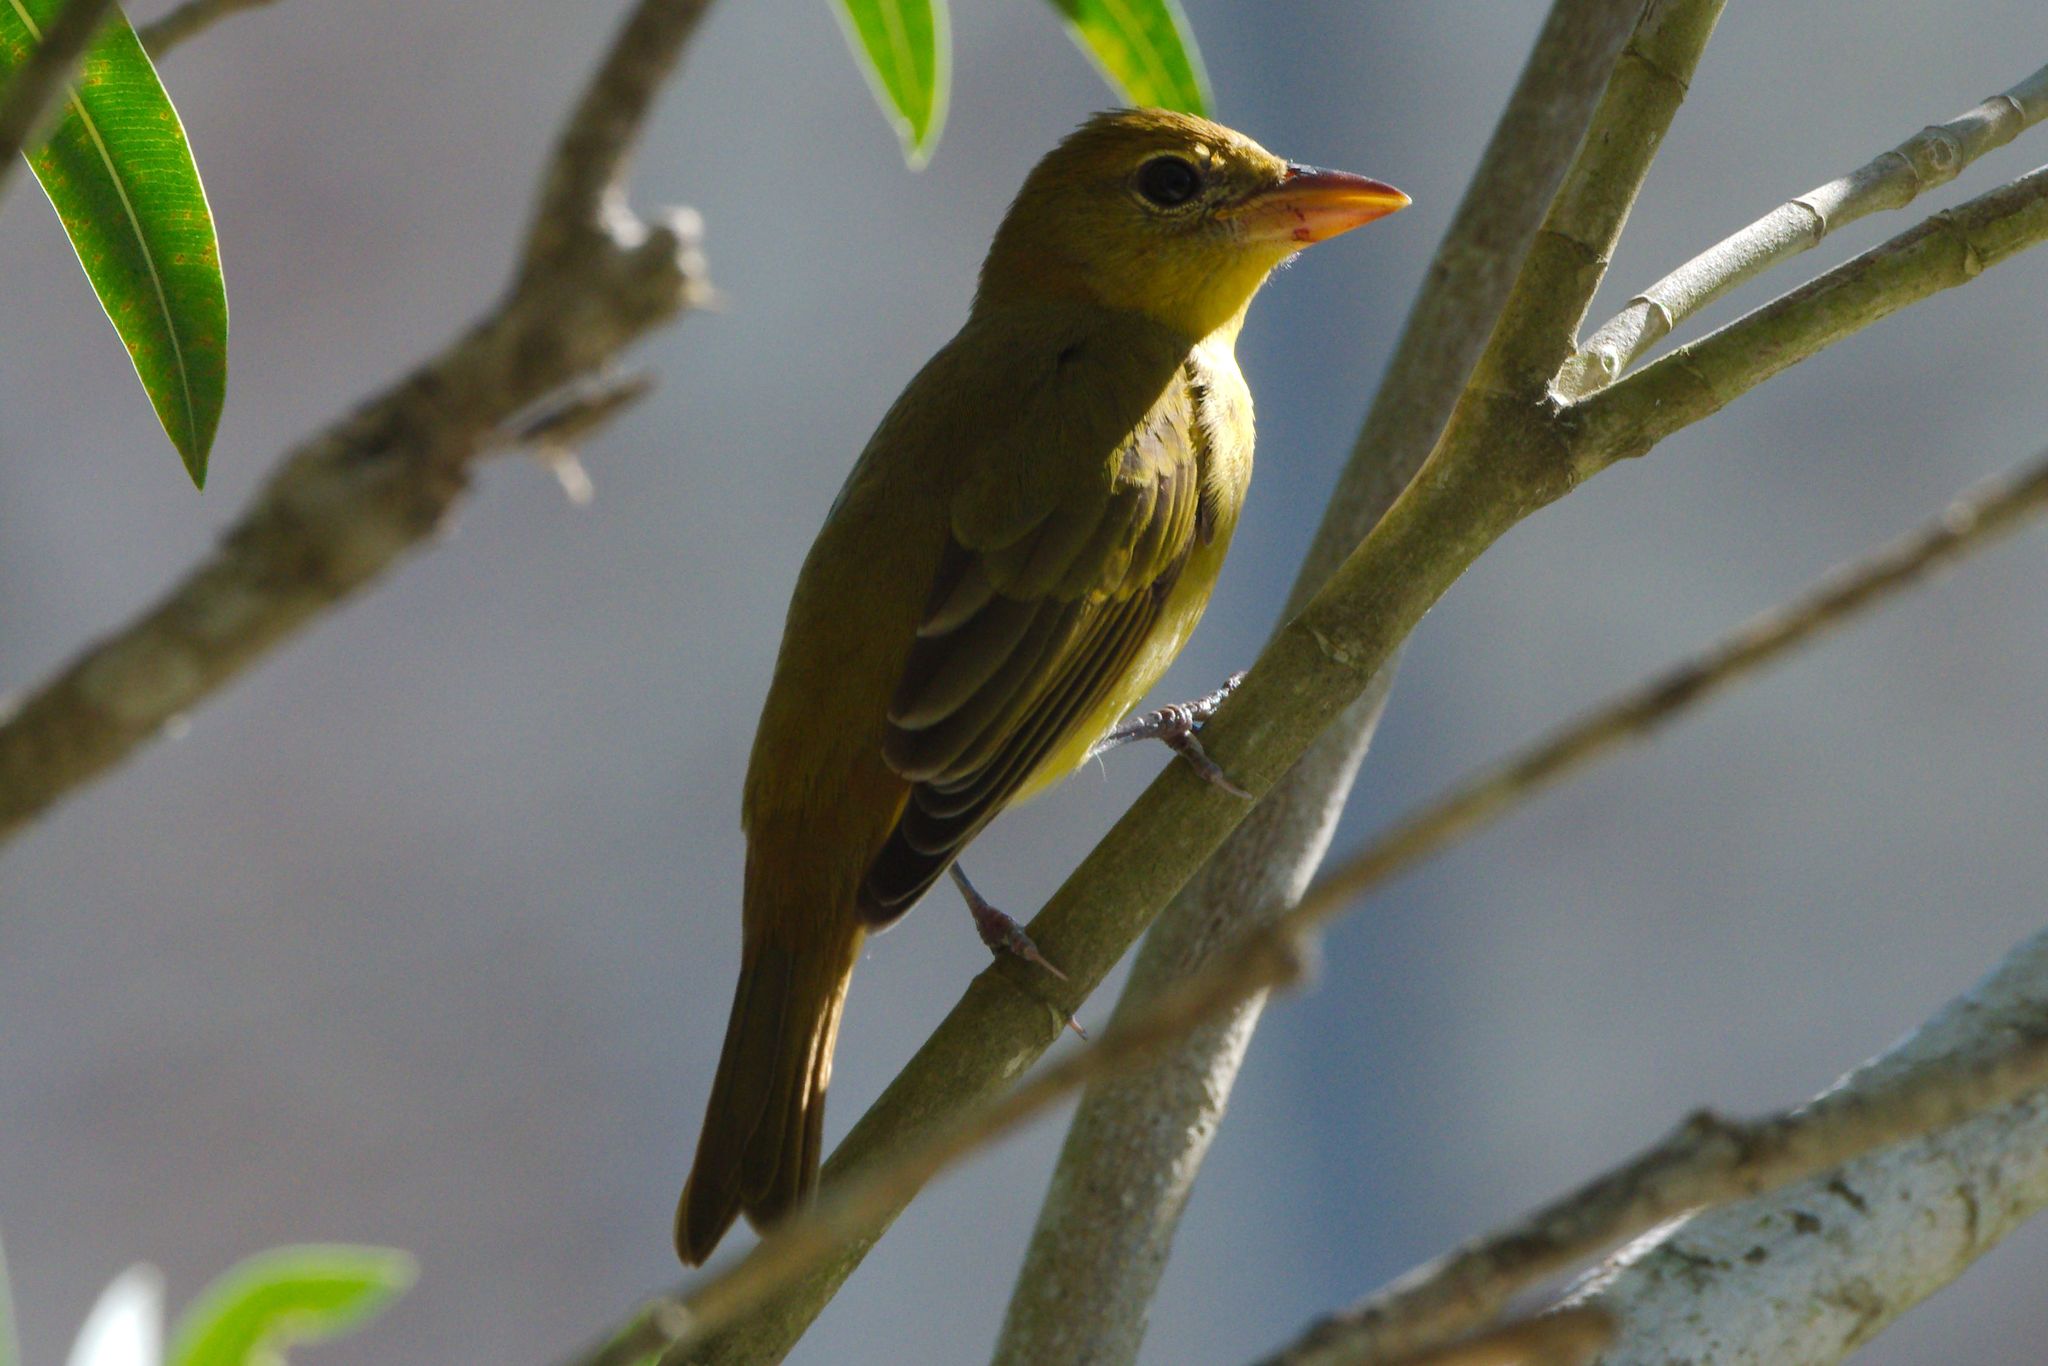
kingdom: Animalia
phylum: Chordata
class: Aves
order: Passeriformes
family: Cardinalidae
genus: Piranga
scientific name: Piranga rubra
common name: Summer tanager
